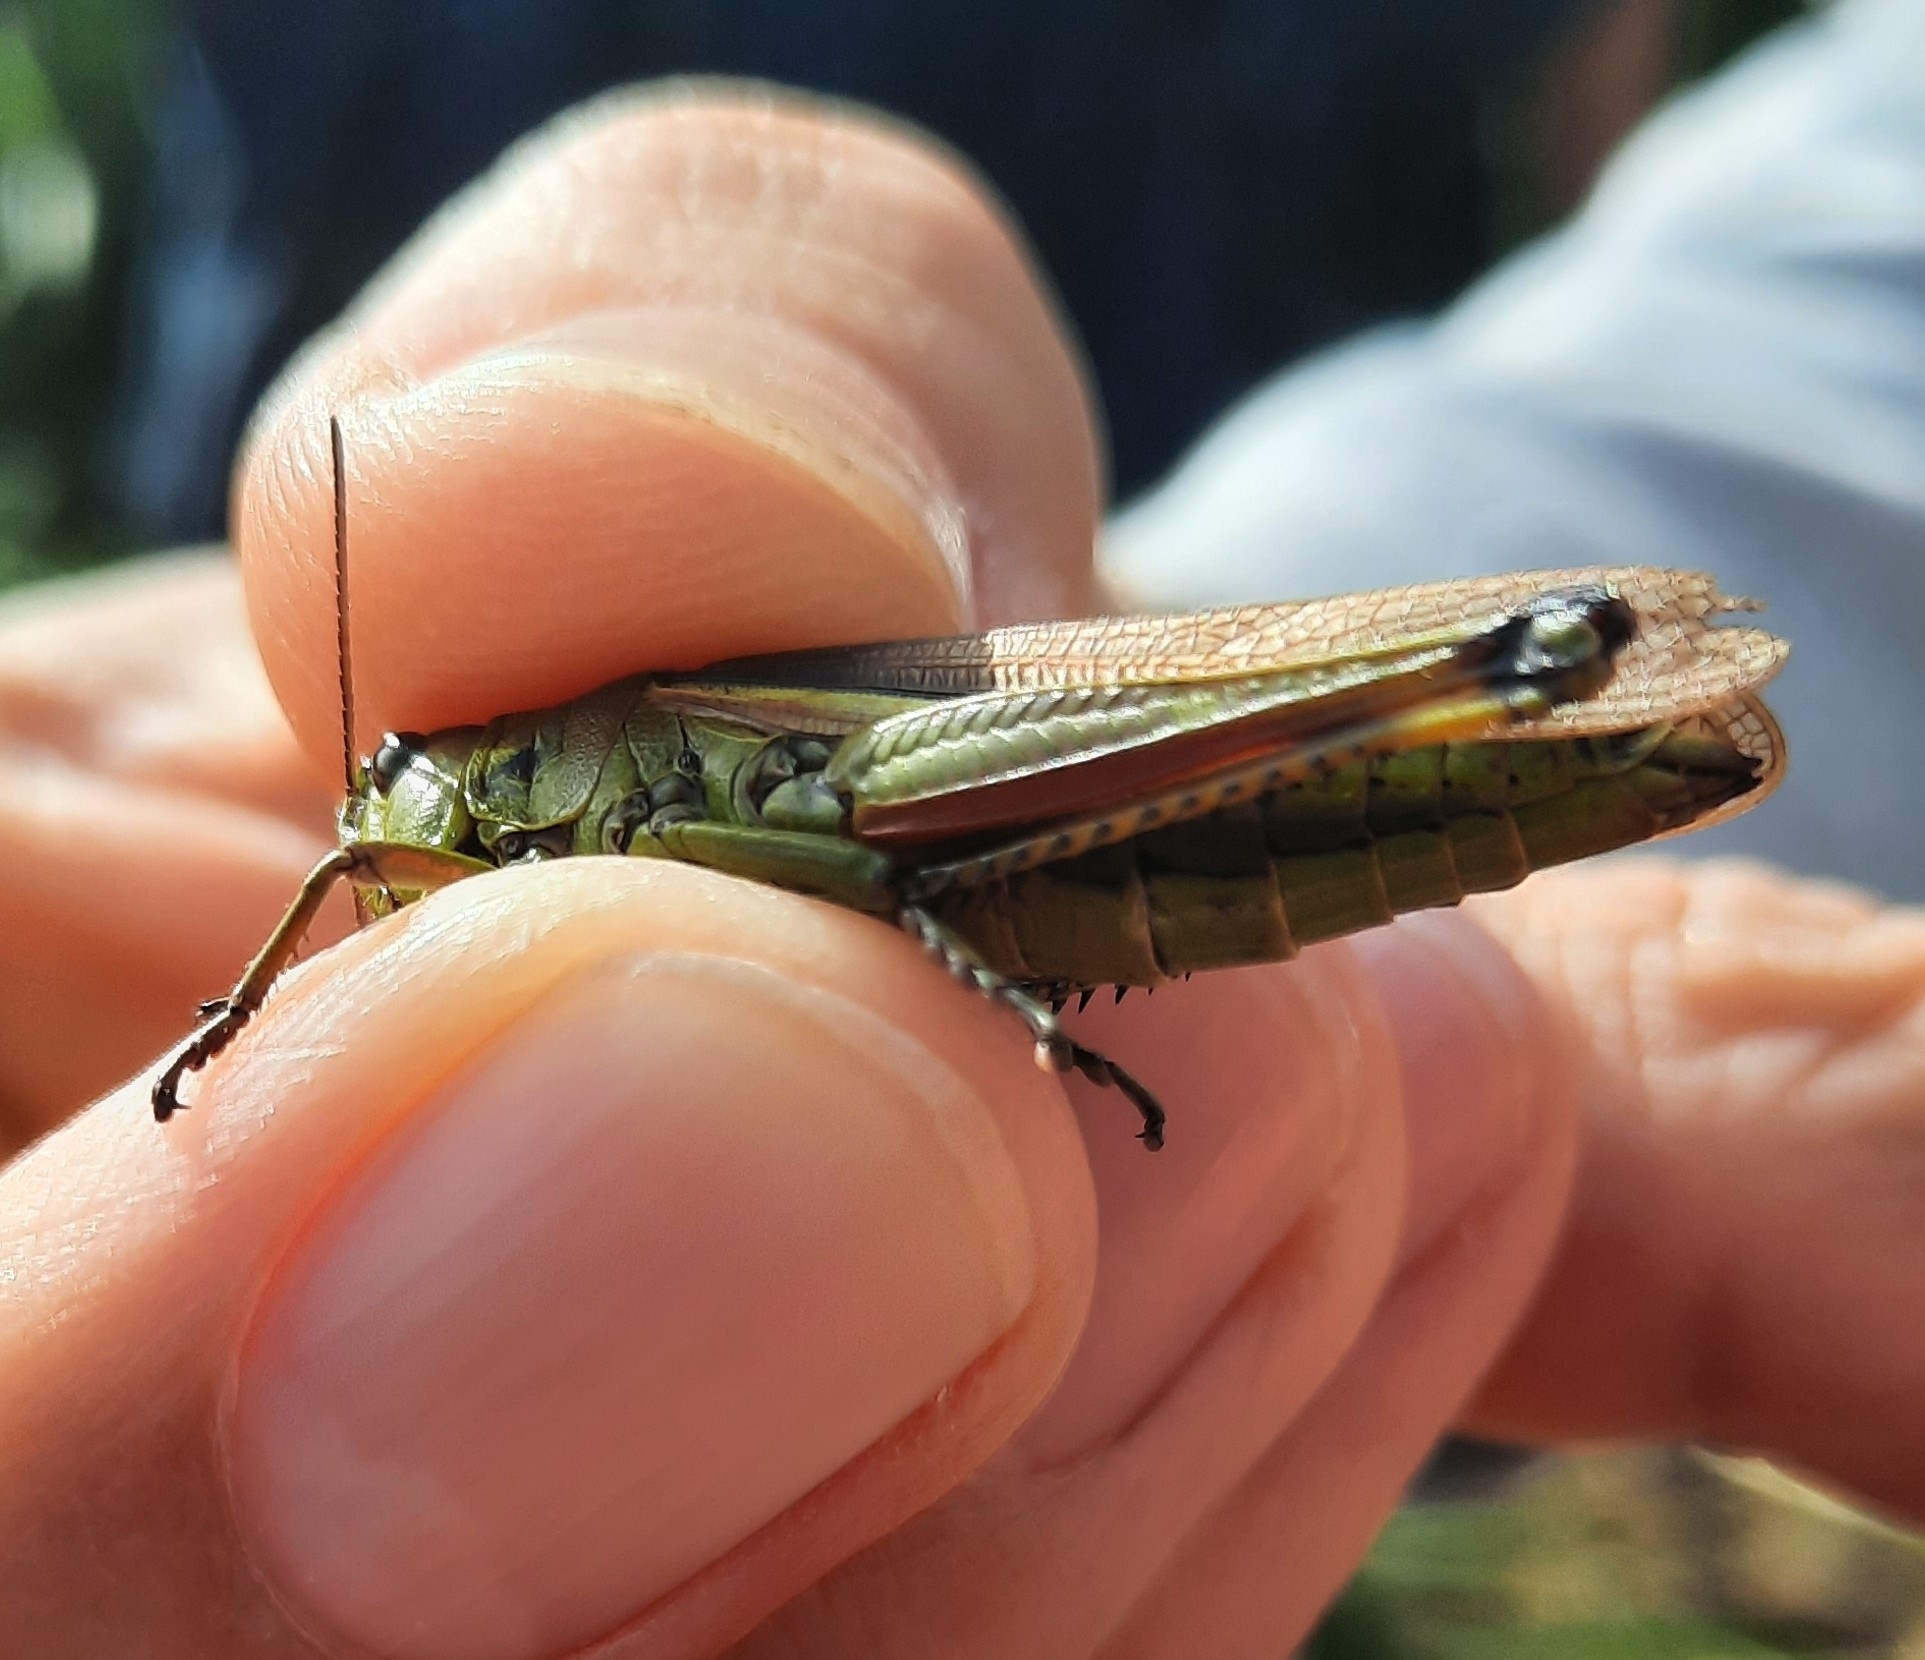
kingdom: Animalia
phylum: Arthropoda
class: Insecta
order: Orthoptera
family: Acrididae
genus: Stethophyma
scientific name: Stethophyma grossum
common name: Large marsh grasshopper
